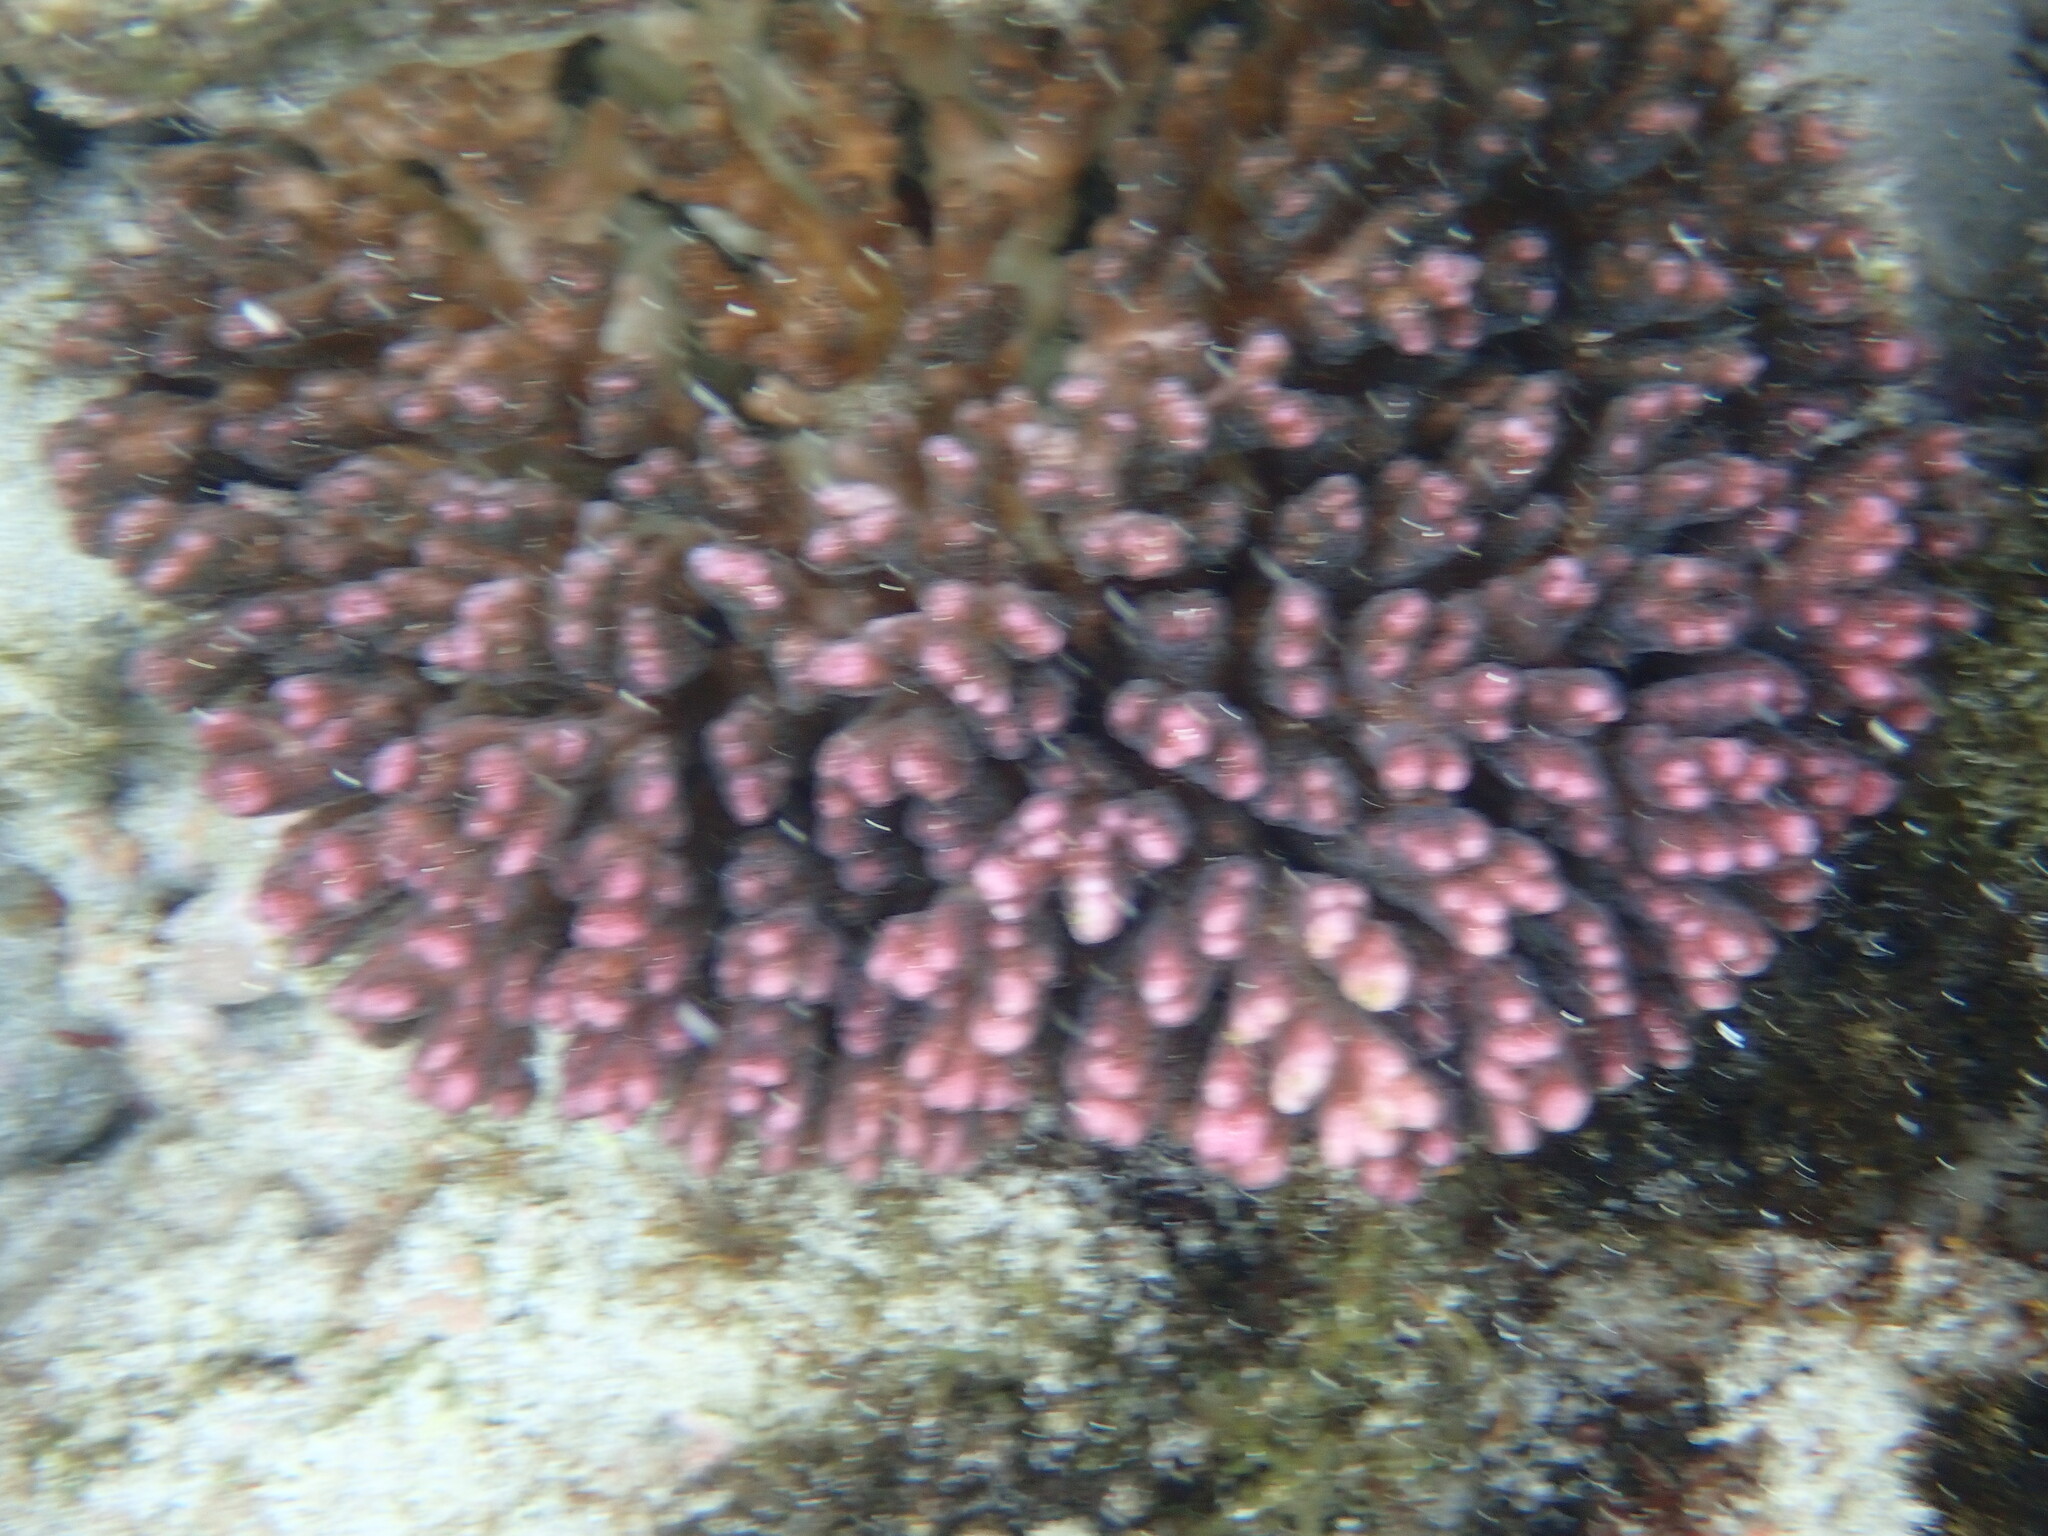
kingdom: Animalia
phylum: Cnidaria
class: Anthozoa
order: Scleractinia
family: Pocilloporidae
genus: Pocillopora
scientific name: Pocillopora damicornis
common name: Cauliflower coral
